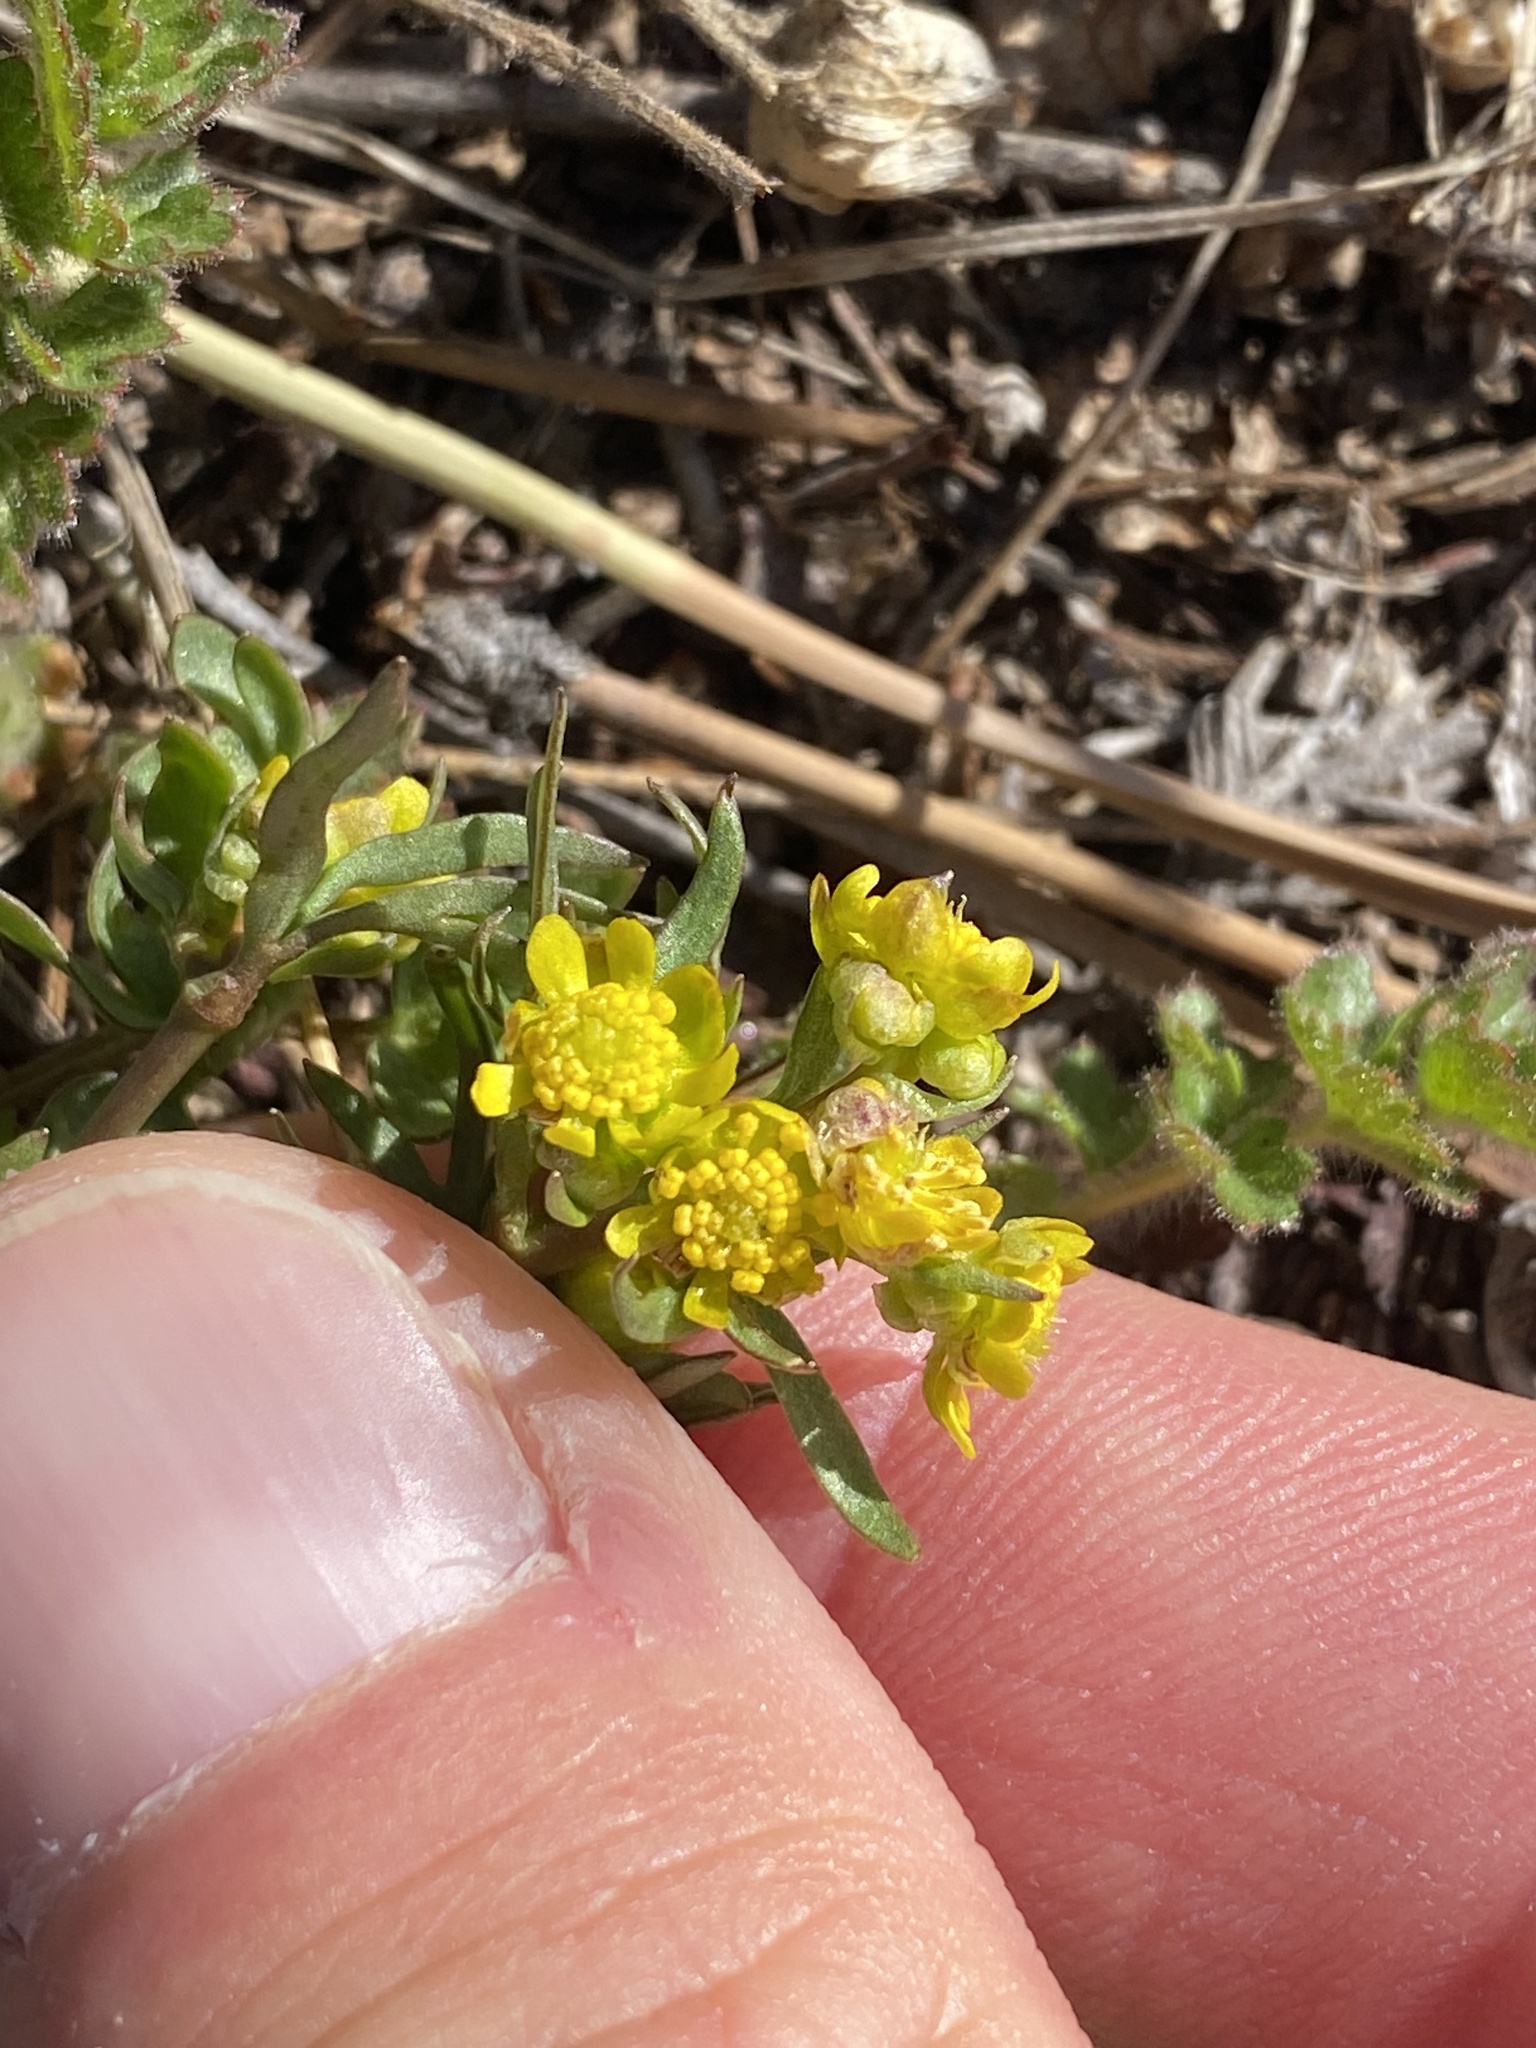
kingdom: Plantae
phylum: Tracheophyta
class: Magnoliopsida
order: Ranunculales
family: Ranunculaceae
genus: Cyrtorhyncha
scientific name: Cyrtorhyncha ranunculina
